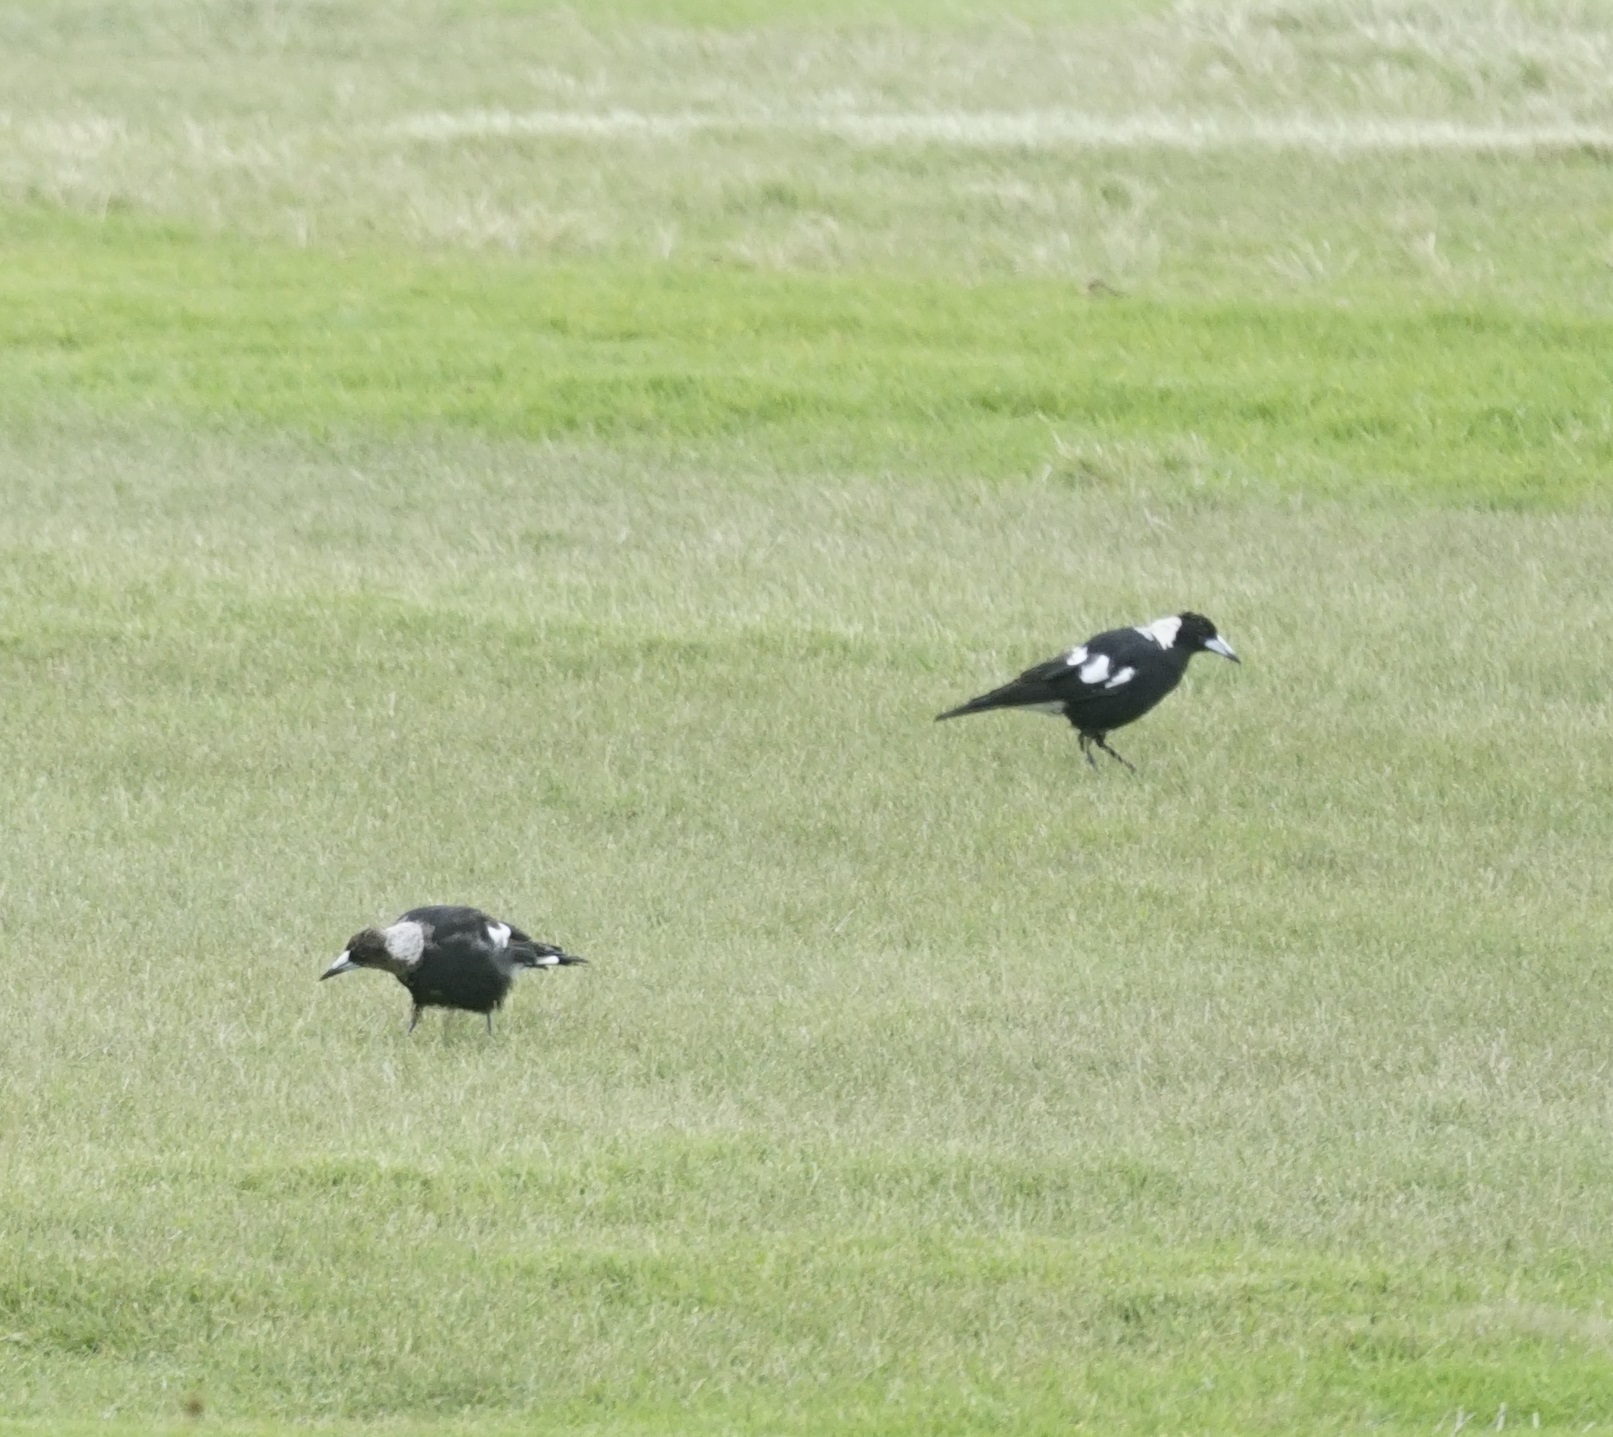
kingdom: Animalia
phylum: Chordata
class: Aves
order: Passeriformes
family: Cracticidae
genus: Gymnorhina
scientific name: Gymnorhina tibicen
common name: Australian magpie
